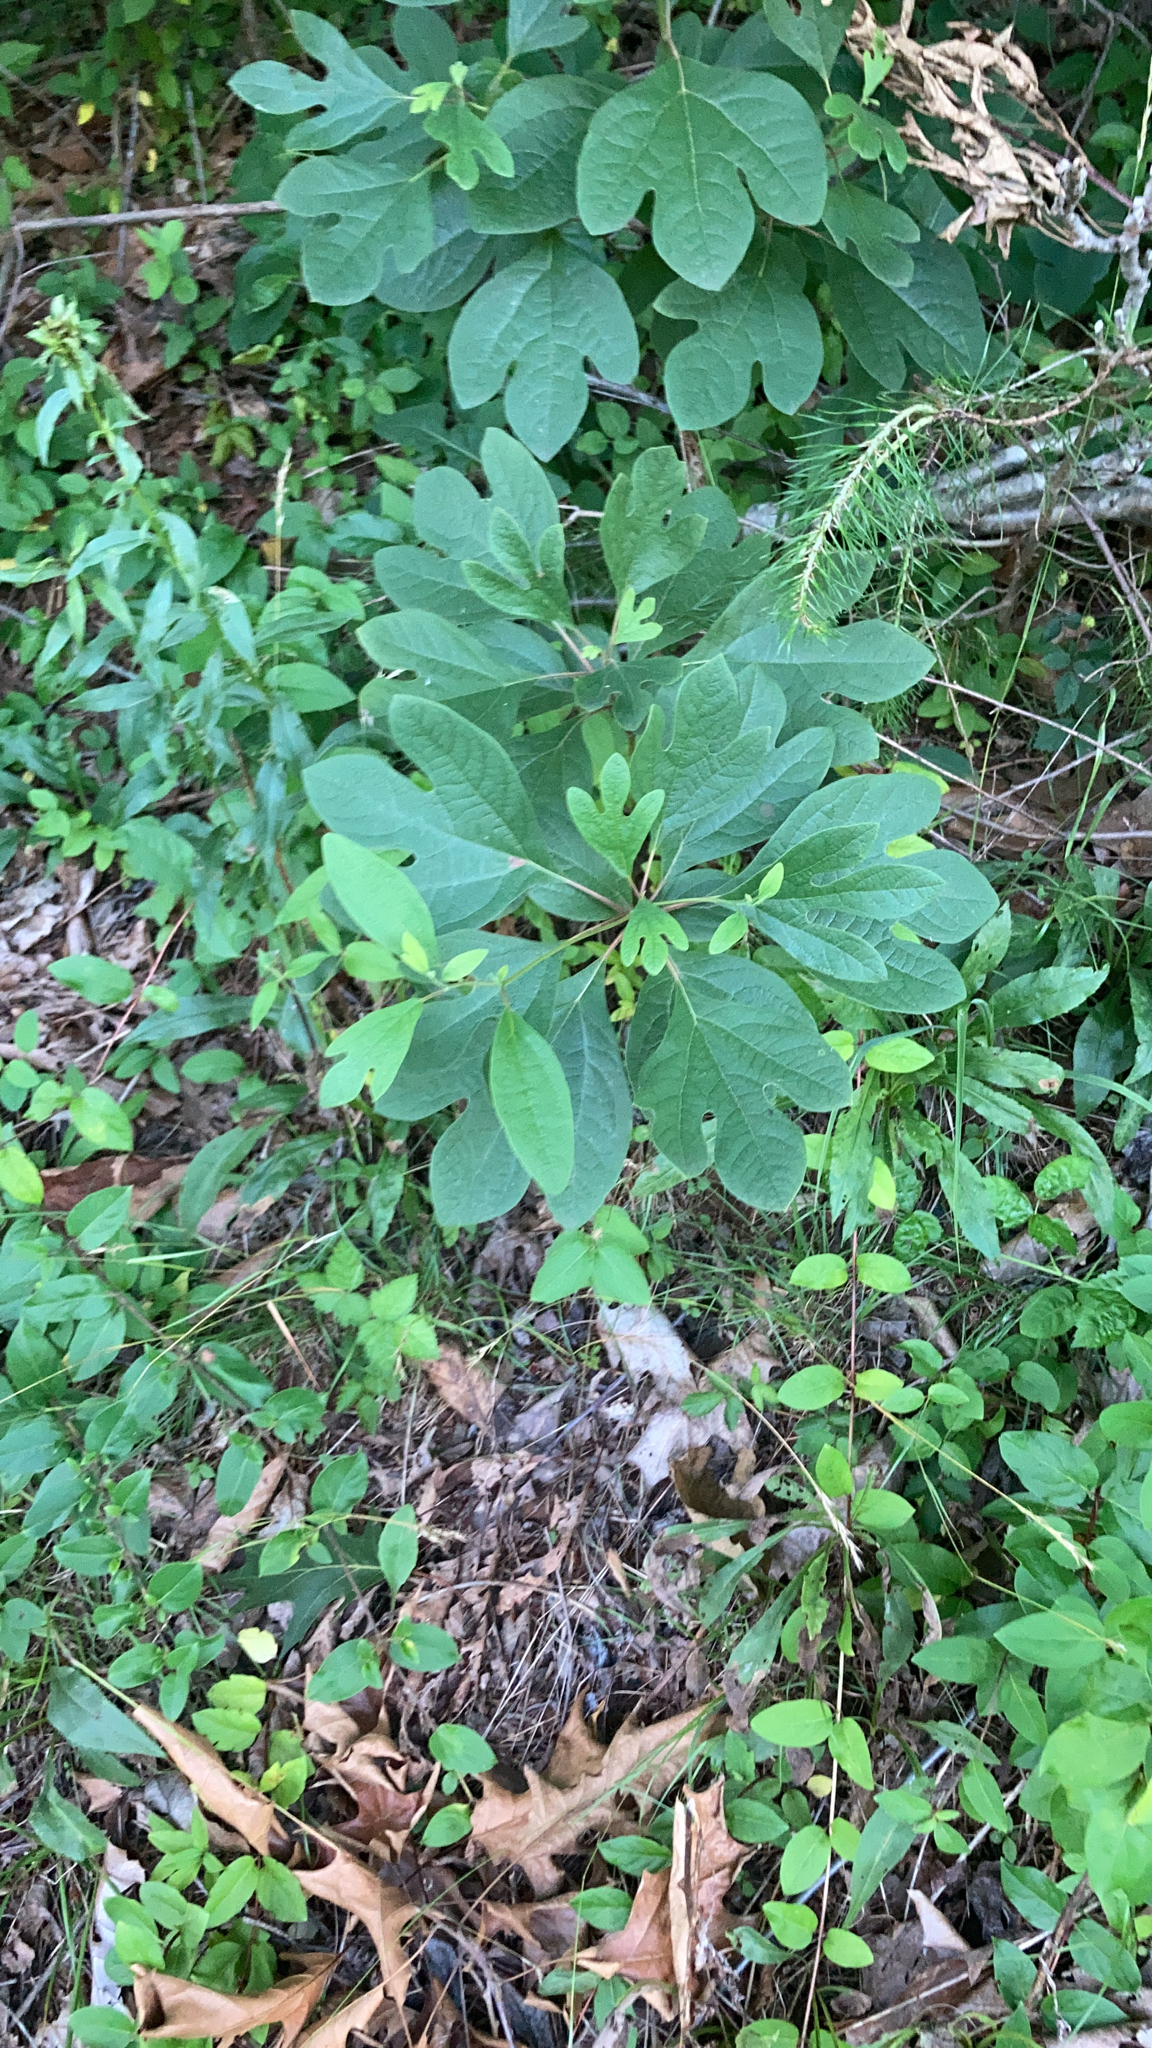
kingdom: Plantae
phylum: Tracheophyta
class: Magnoliopsida
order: Laurales
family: Lauraceae
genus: Sassafras
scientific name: Sassafras albidum
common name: Sassafras
